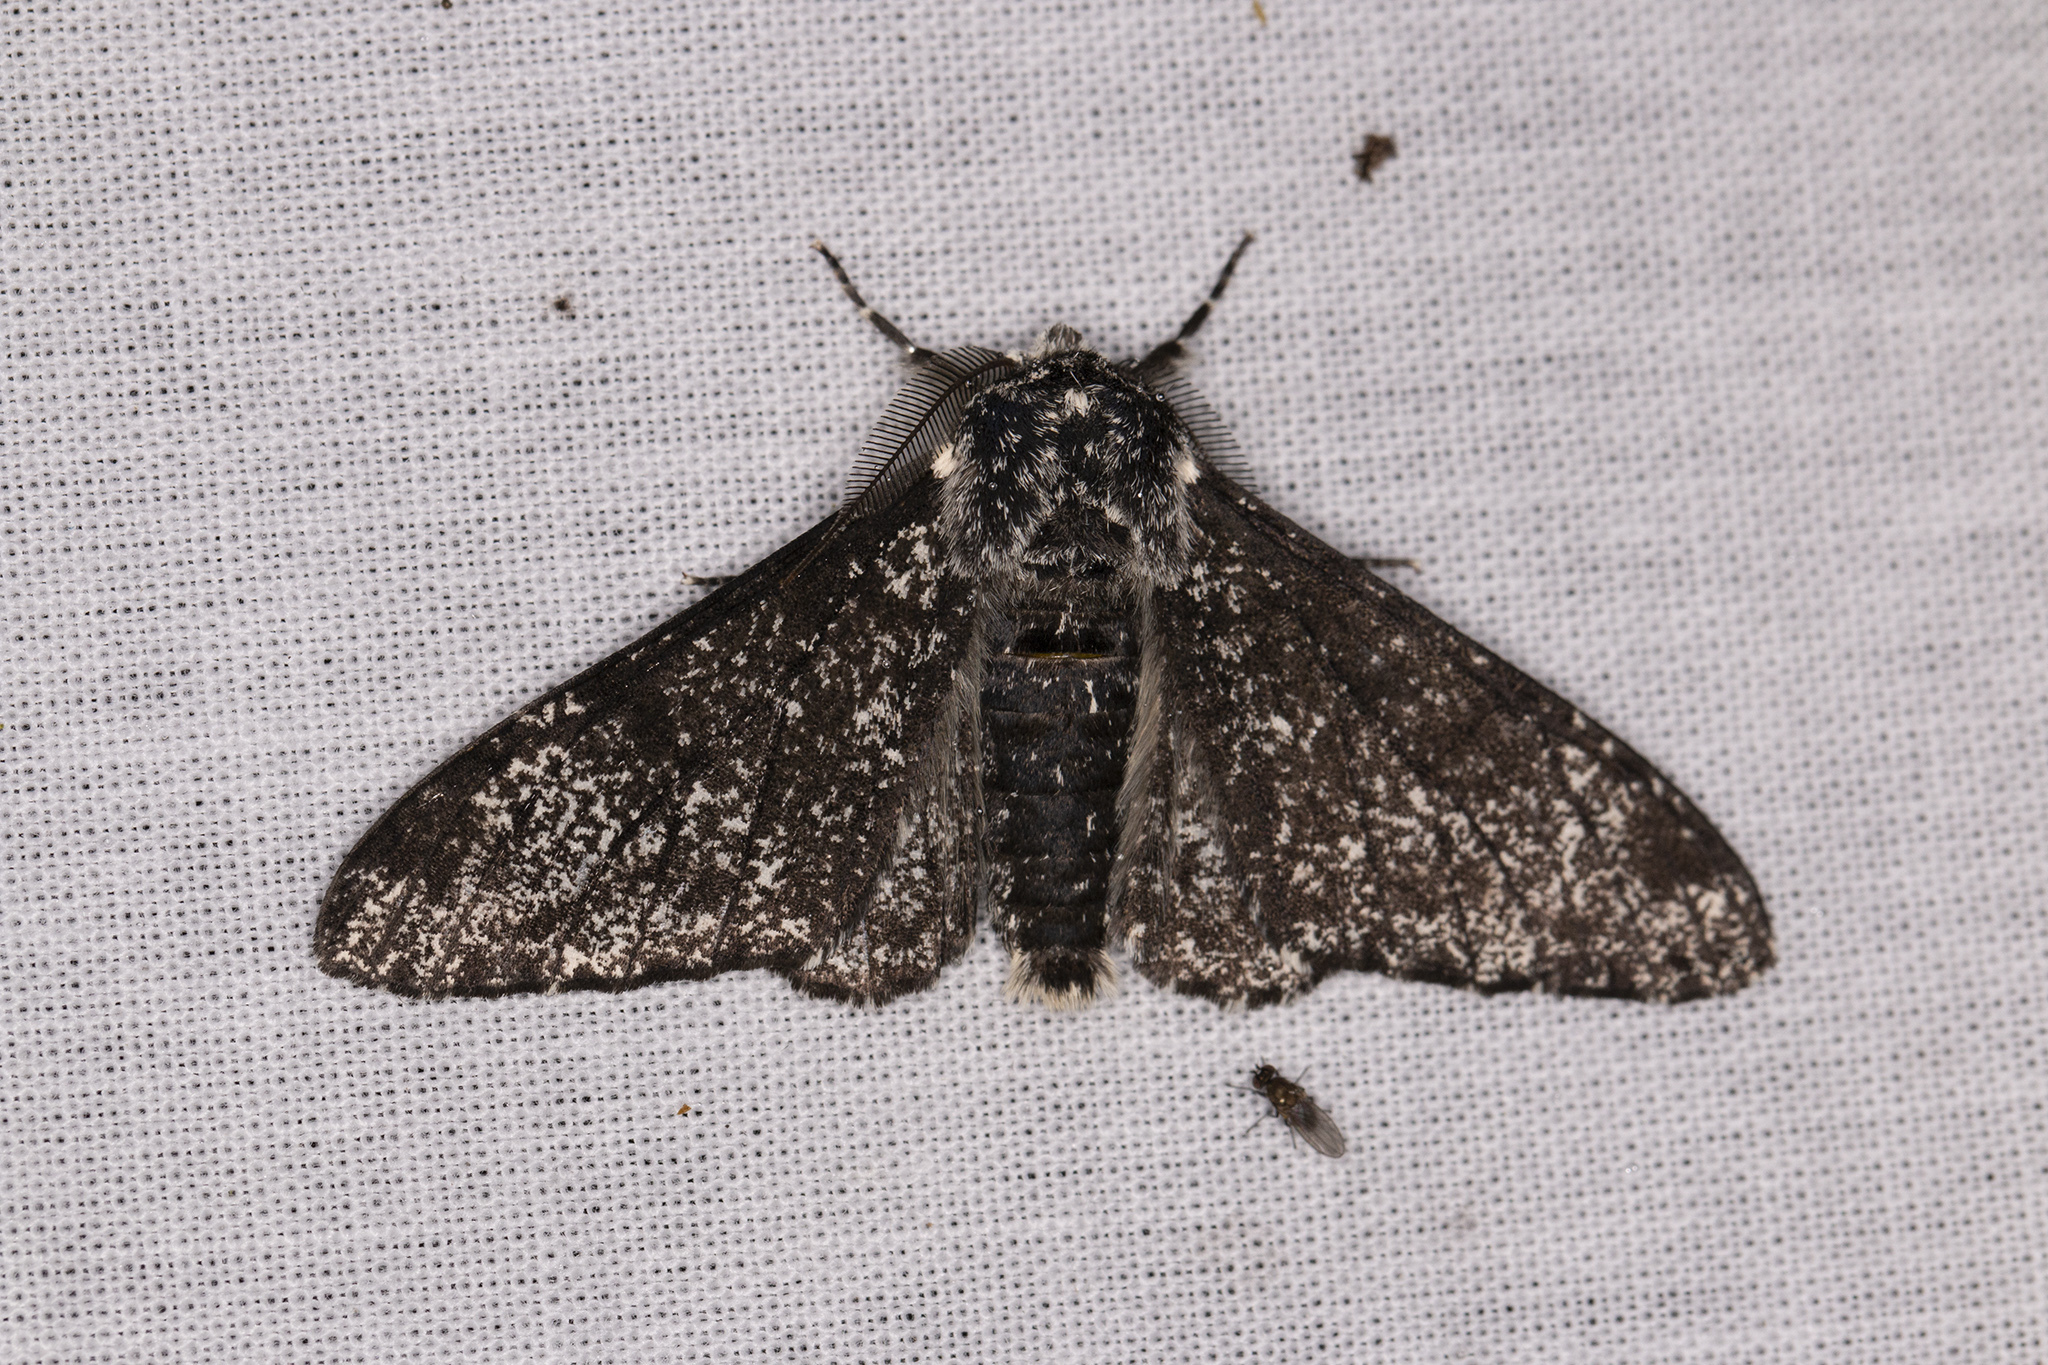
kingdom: Animalia
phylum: Arthropoda
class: Insecta
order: Lepidoptera
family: Geometridae
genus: Biston
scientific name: Biston betularia
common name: Peppered moth
